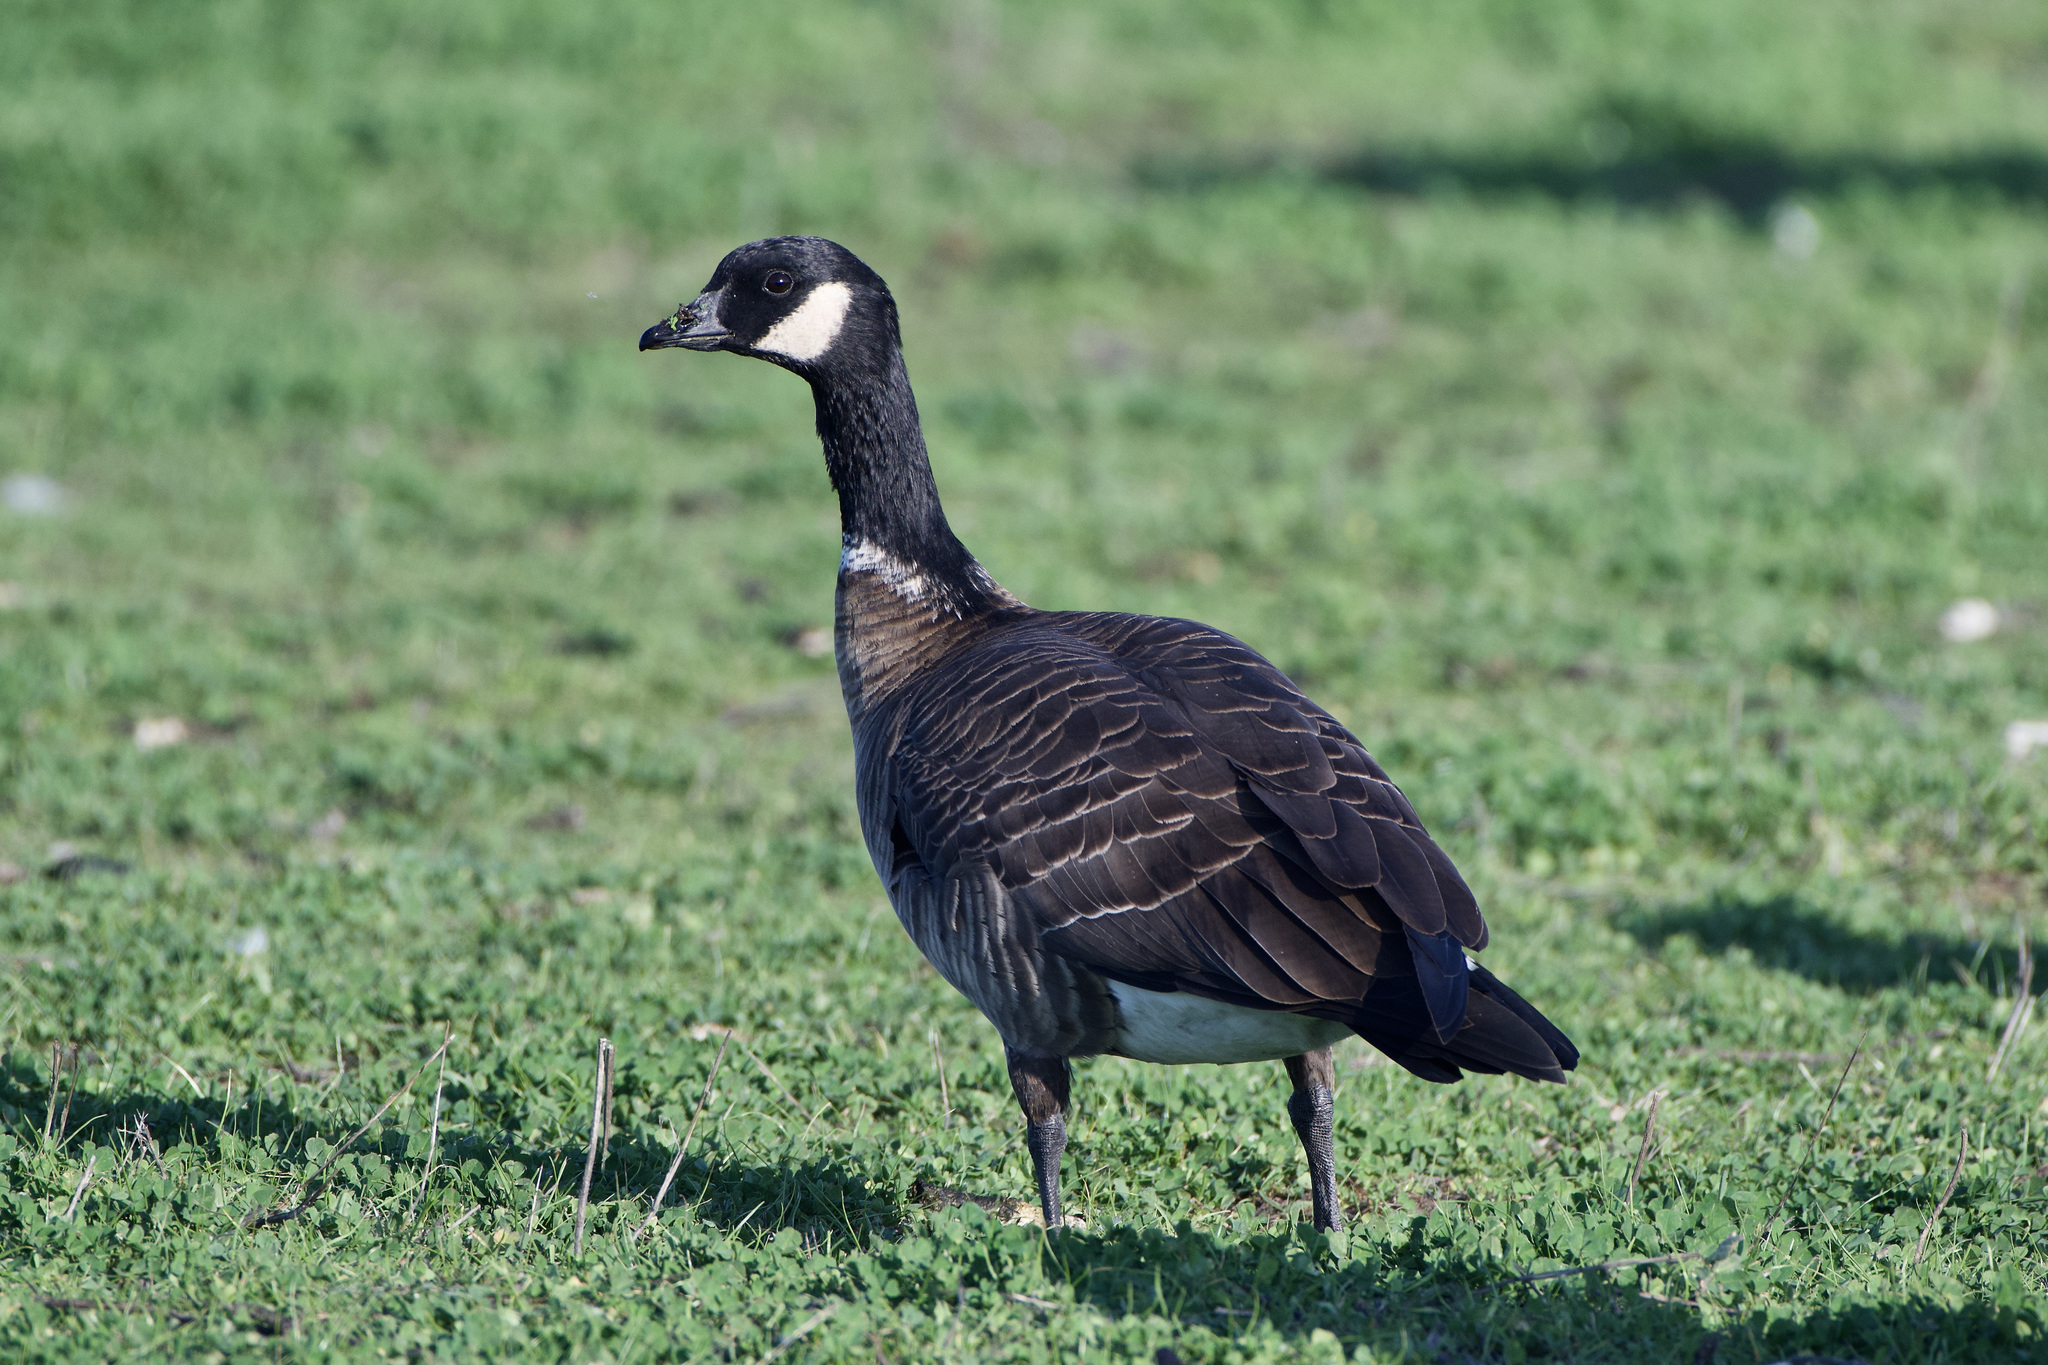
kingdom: Animalia
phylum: Chordata
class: Aves
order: Anseriformes
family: Anatidae
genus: Branta
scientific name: Branta hutchinsii
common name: Cackling goose
